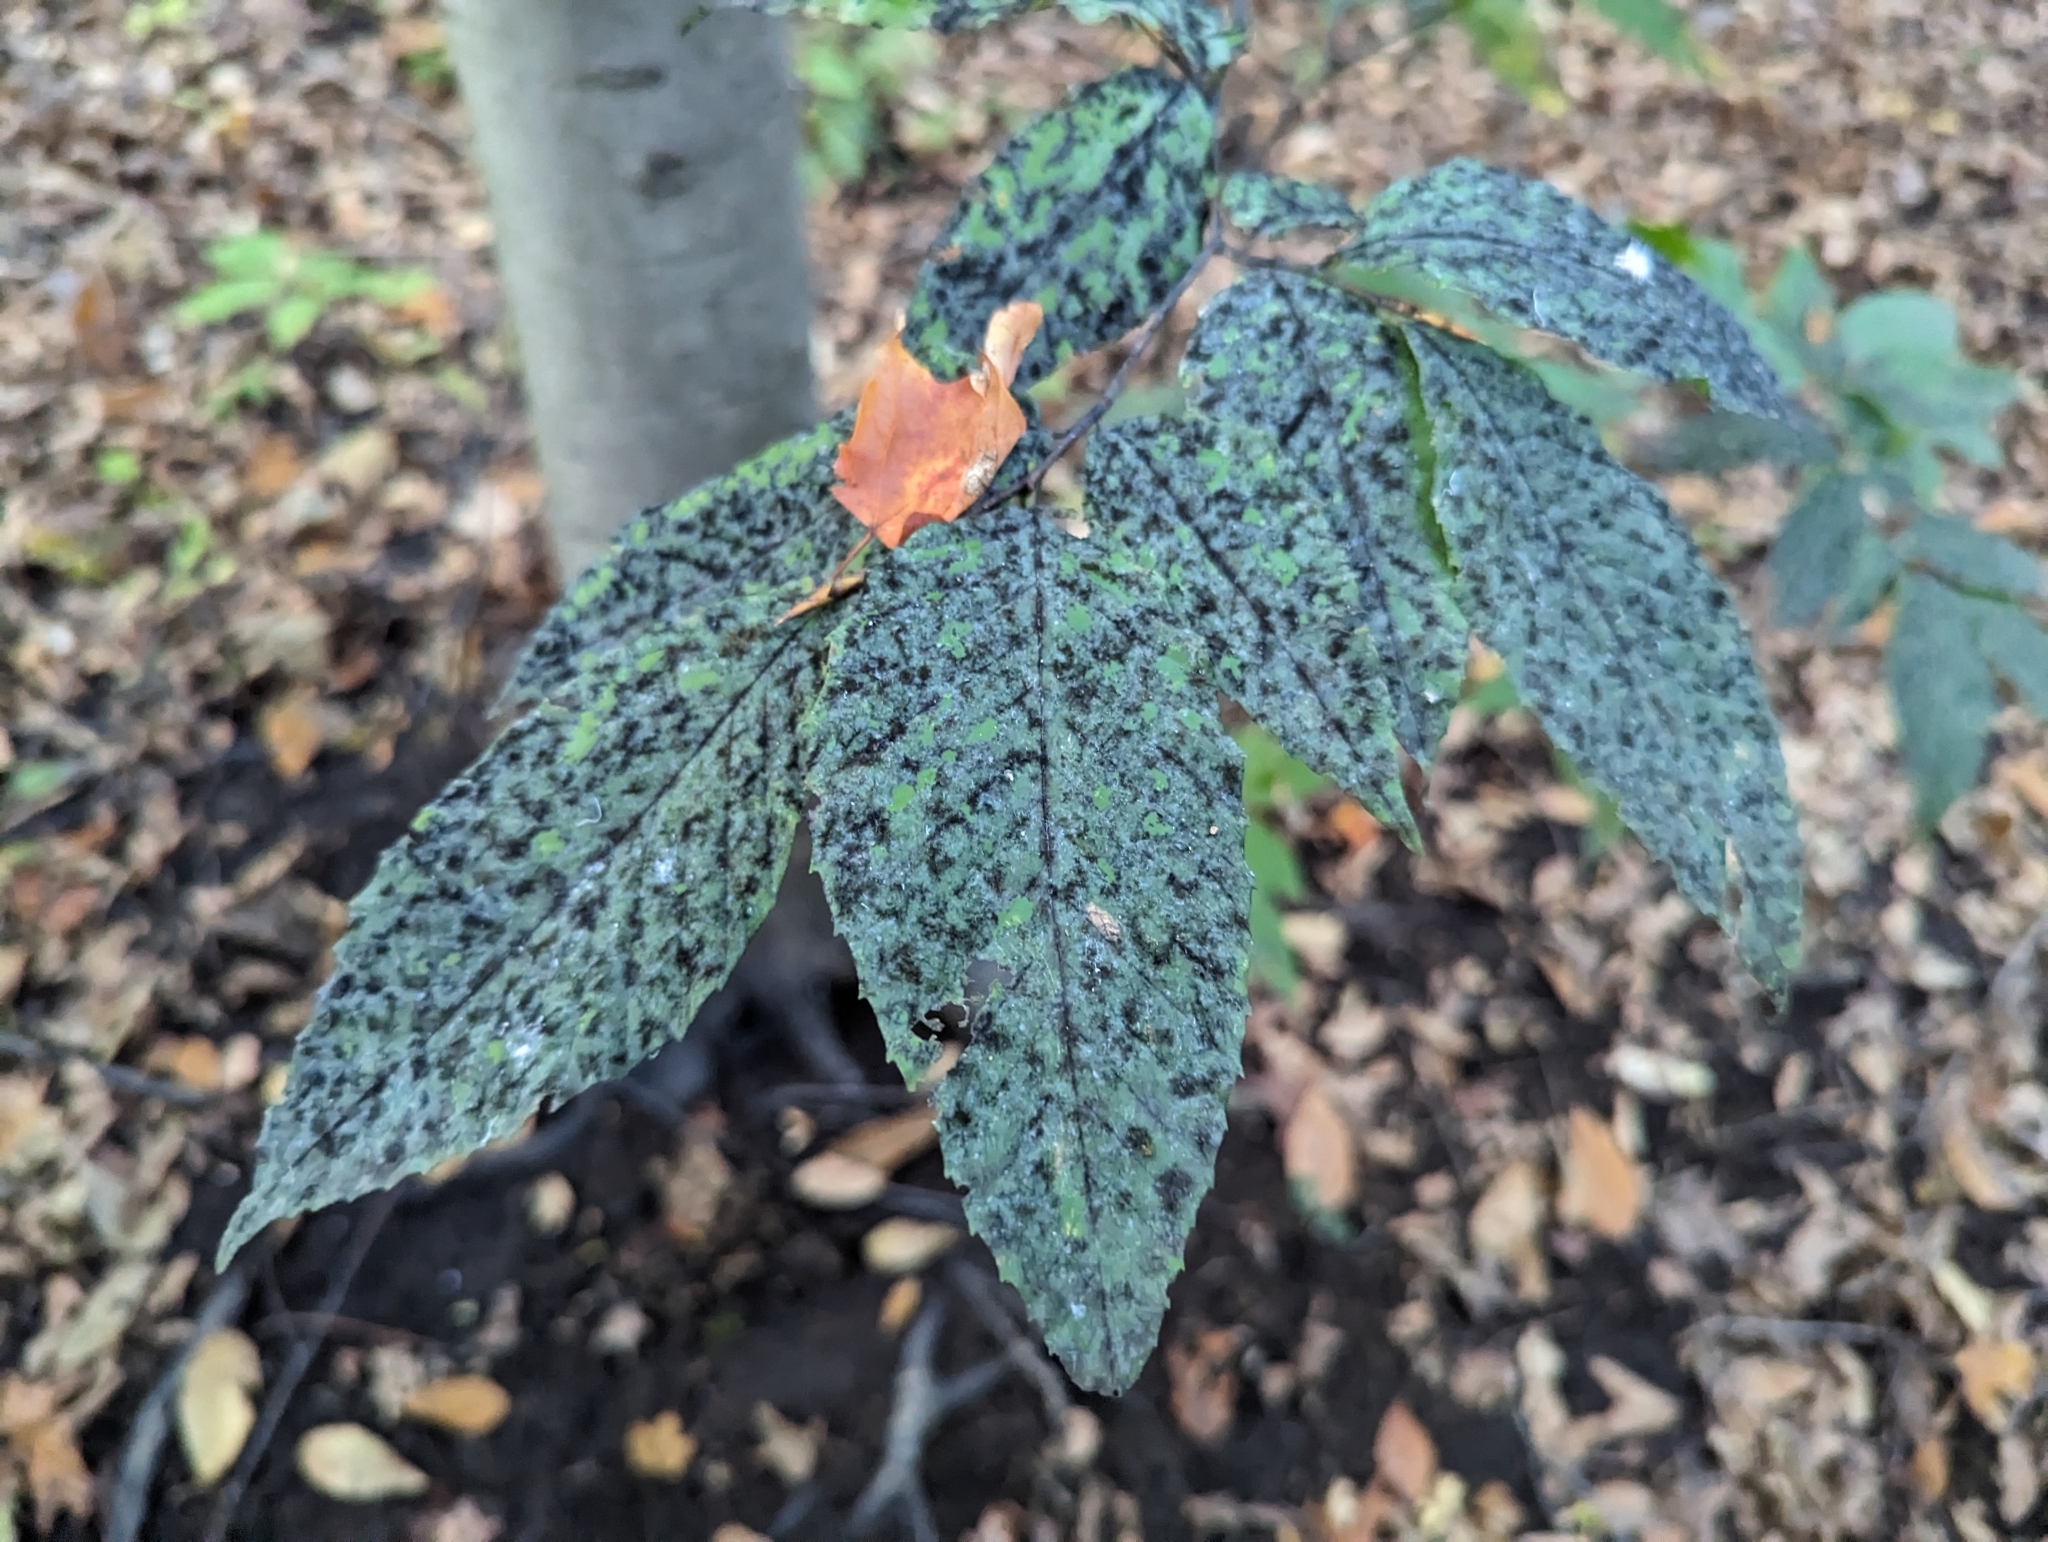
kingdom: Plantae
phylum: Tracheophyta
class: Magnoliopsida
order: Fagales
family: Fagaceae
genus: Fagus
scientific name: Fagus grandifolia
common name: American beech
